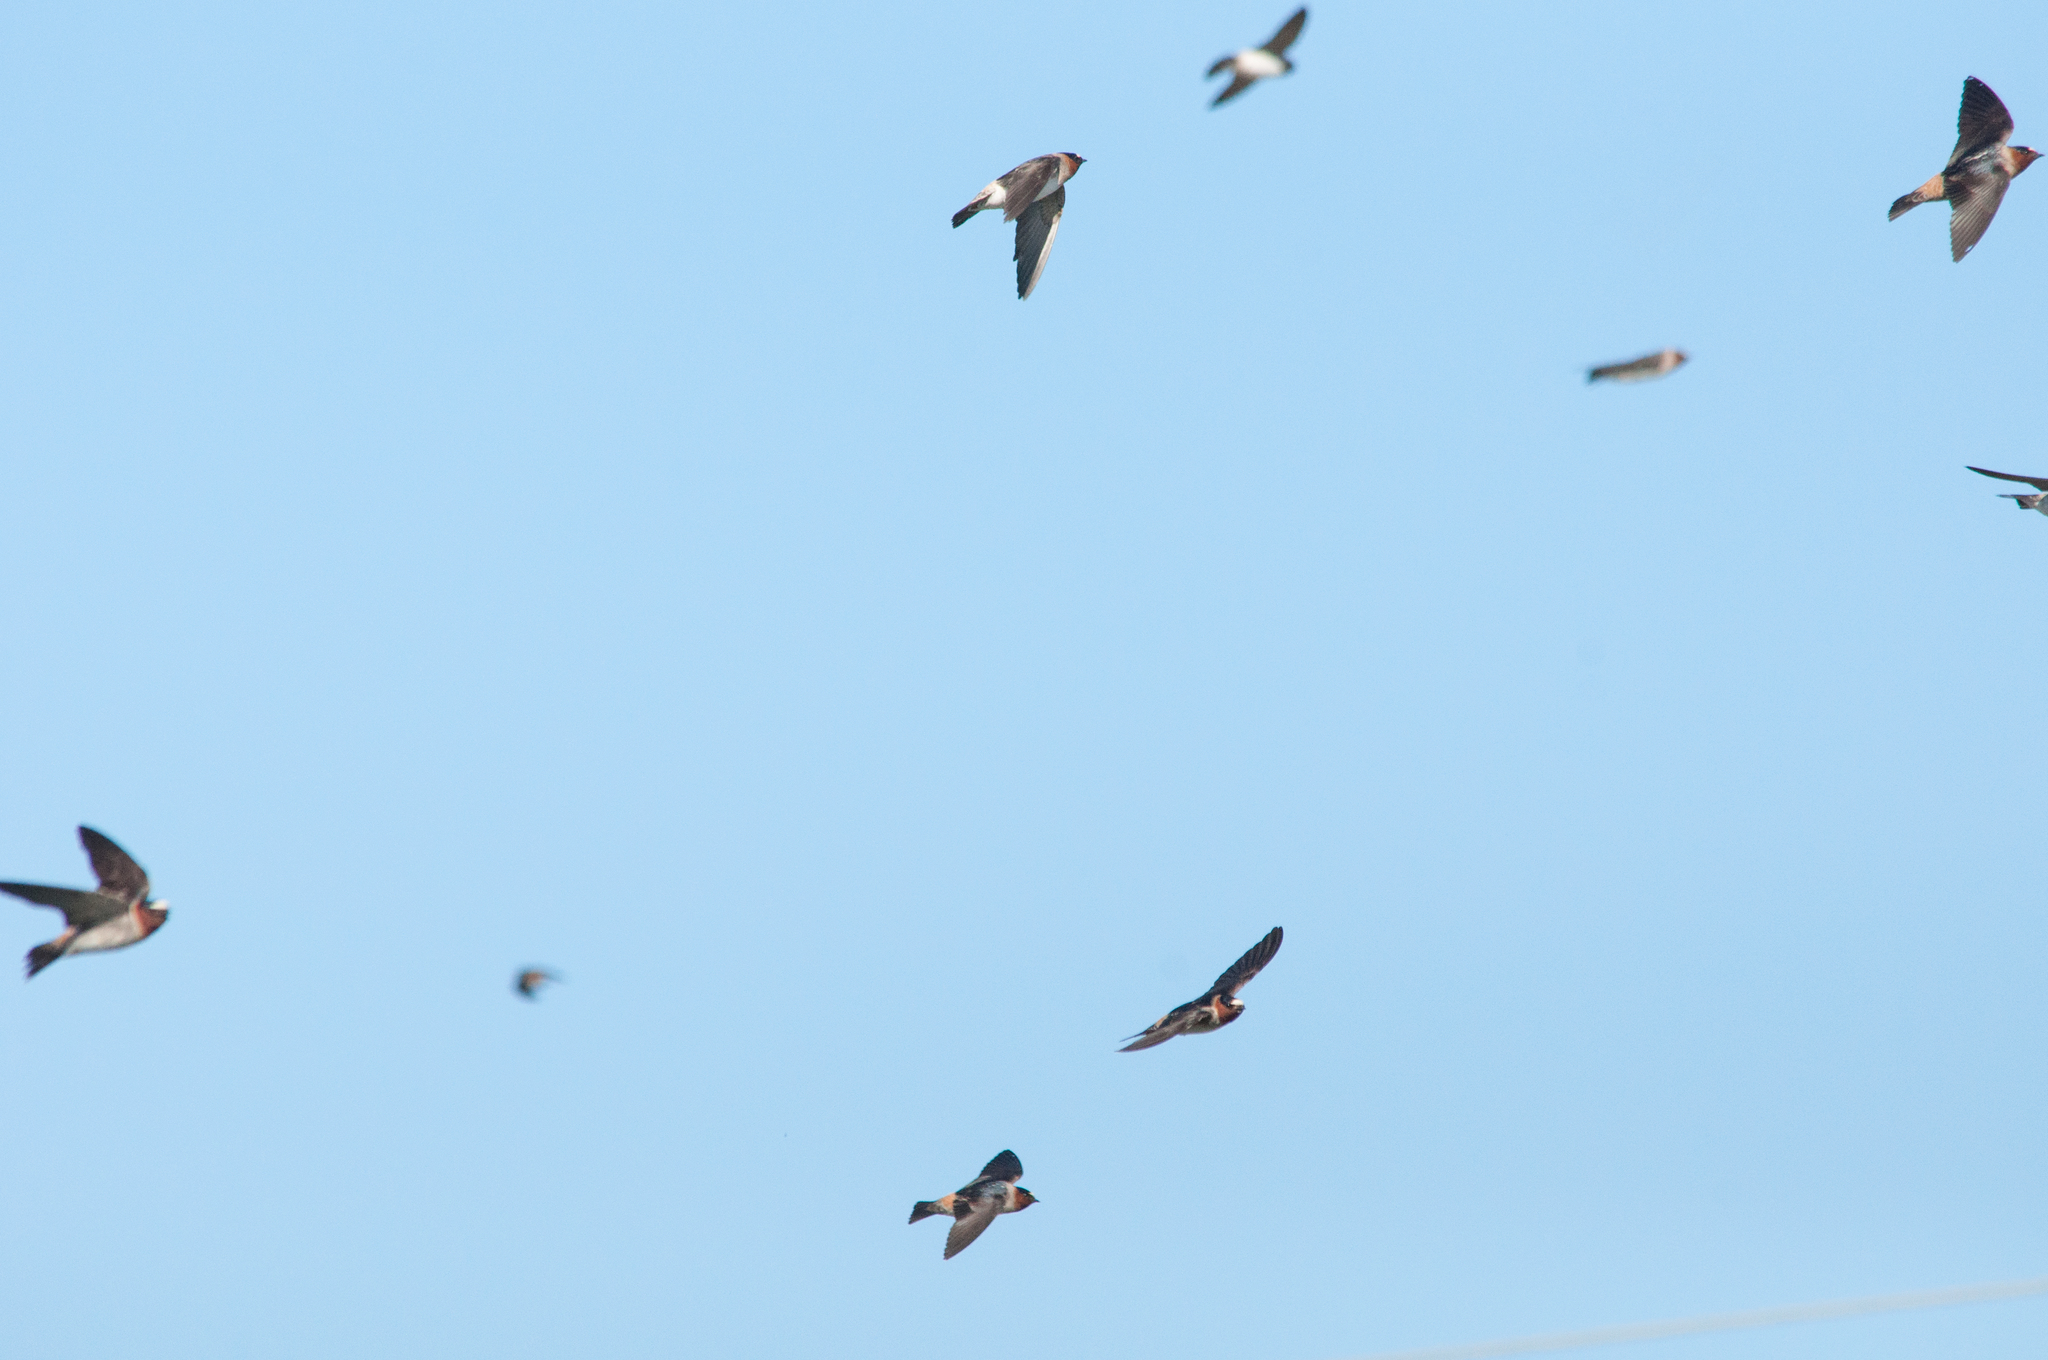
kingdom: Animalia
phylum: Chordata
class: Aves
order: Passeriformes
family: Hirundinidae
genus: Petrochelidon
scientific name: Petrochelidon pyrrhonota
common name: American cliff swallow
